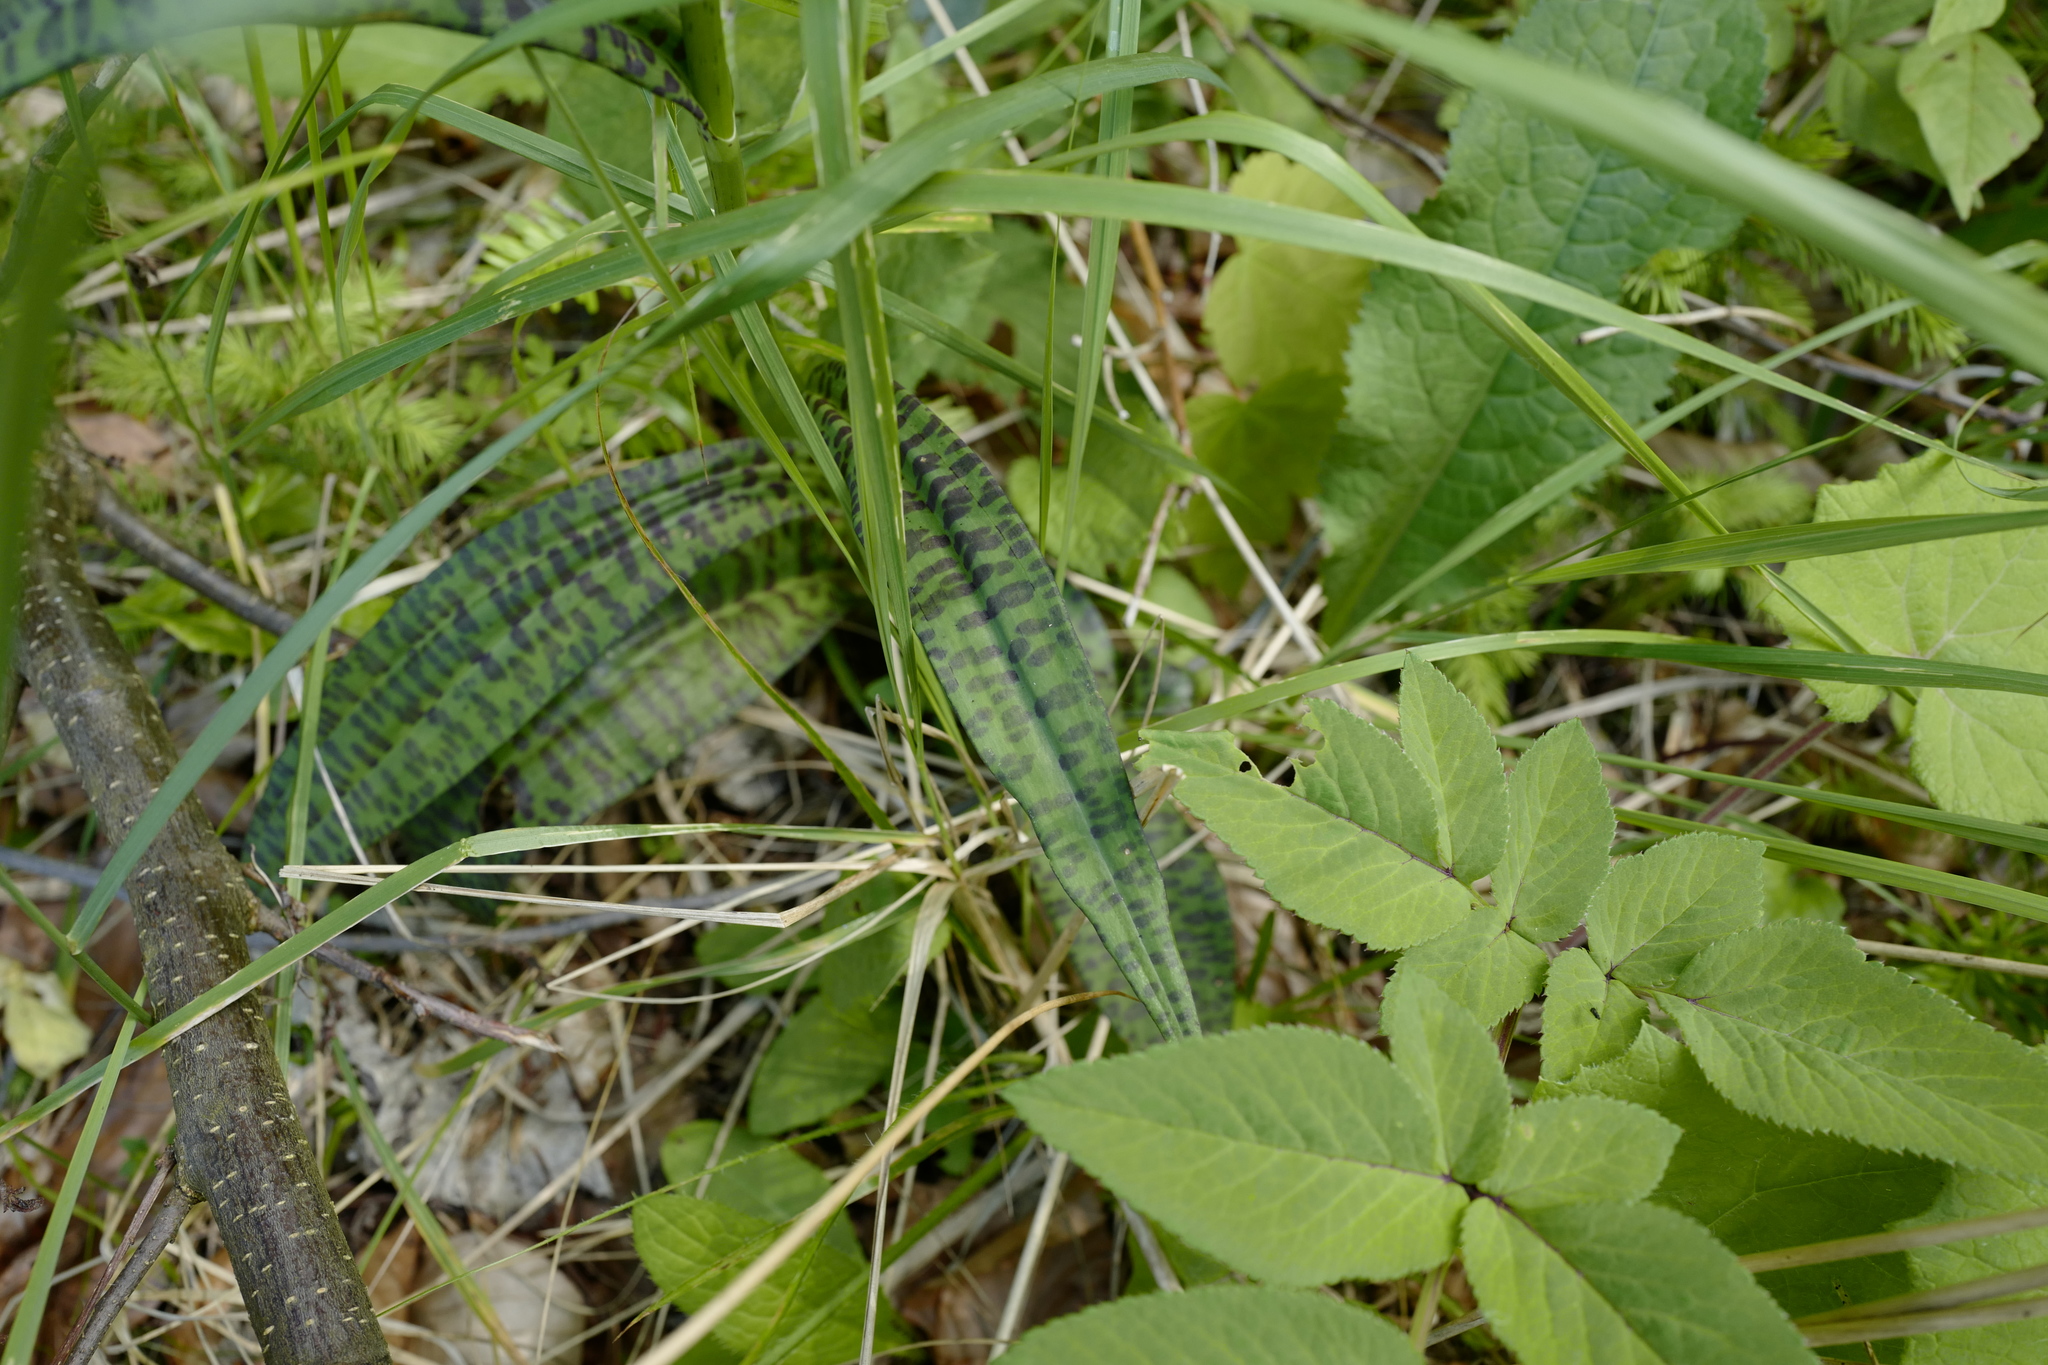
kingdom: Plantae
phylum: Tracheophyta
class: Liliopsida
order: Asparagales
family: Orchidaceae
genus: Dactylorhiza
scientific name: Dactylorhiza maculata
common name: Heath spotted-orchid
